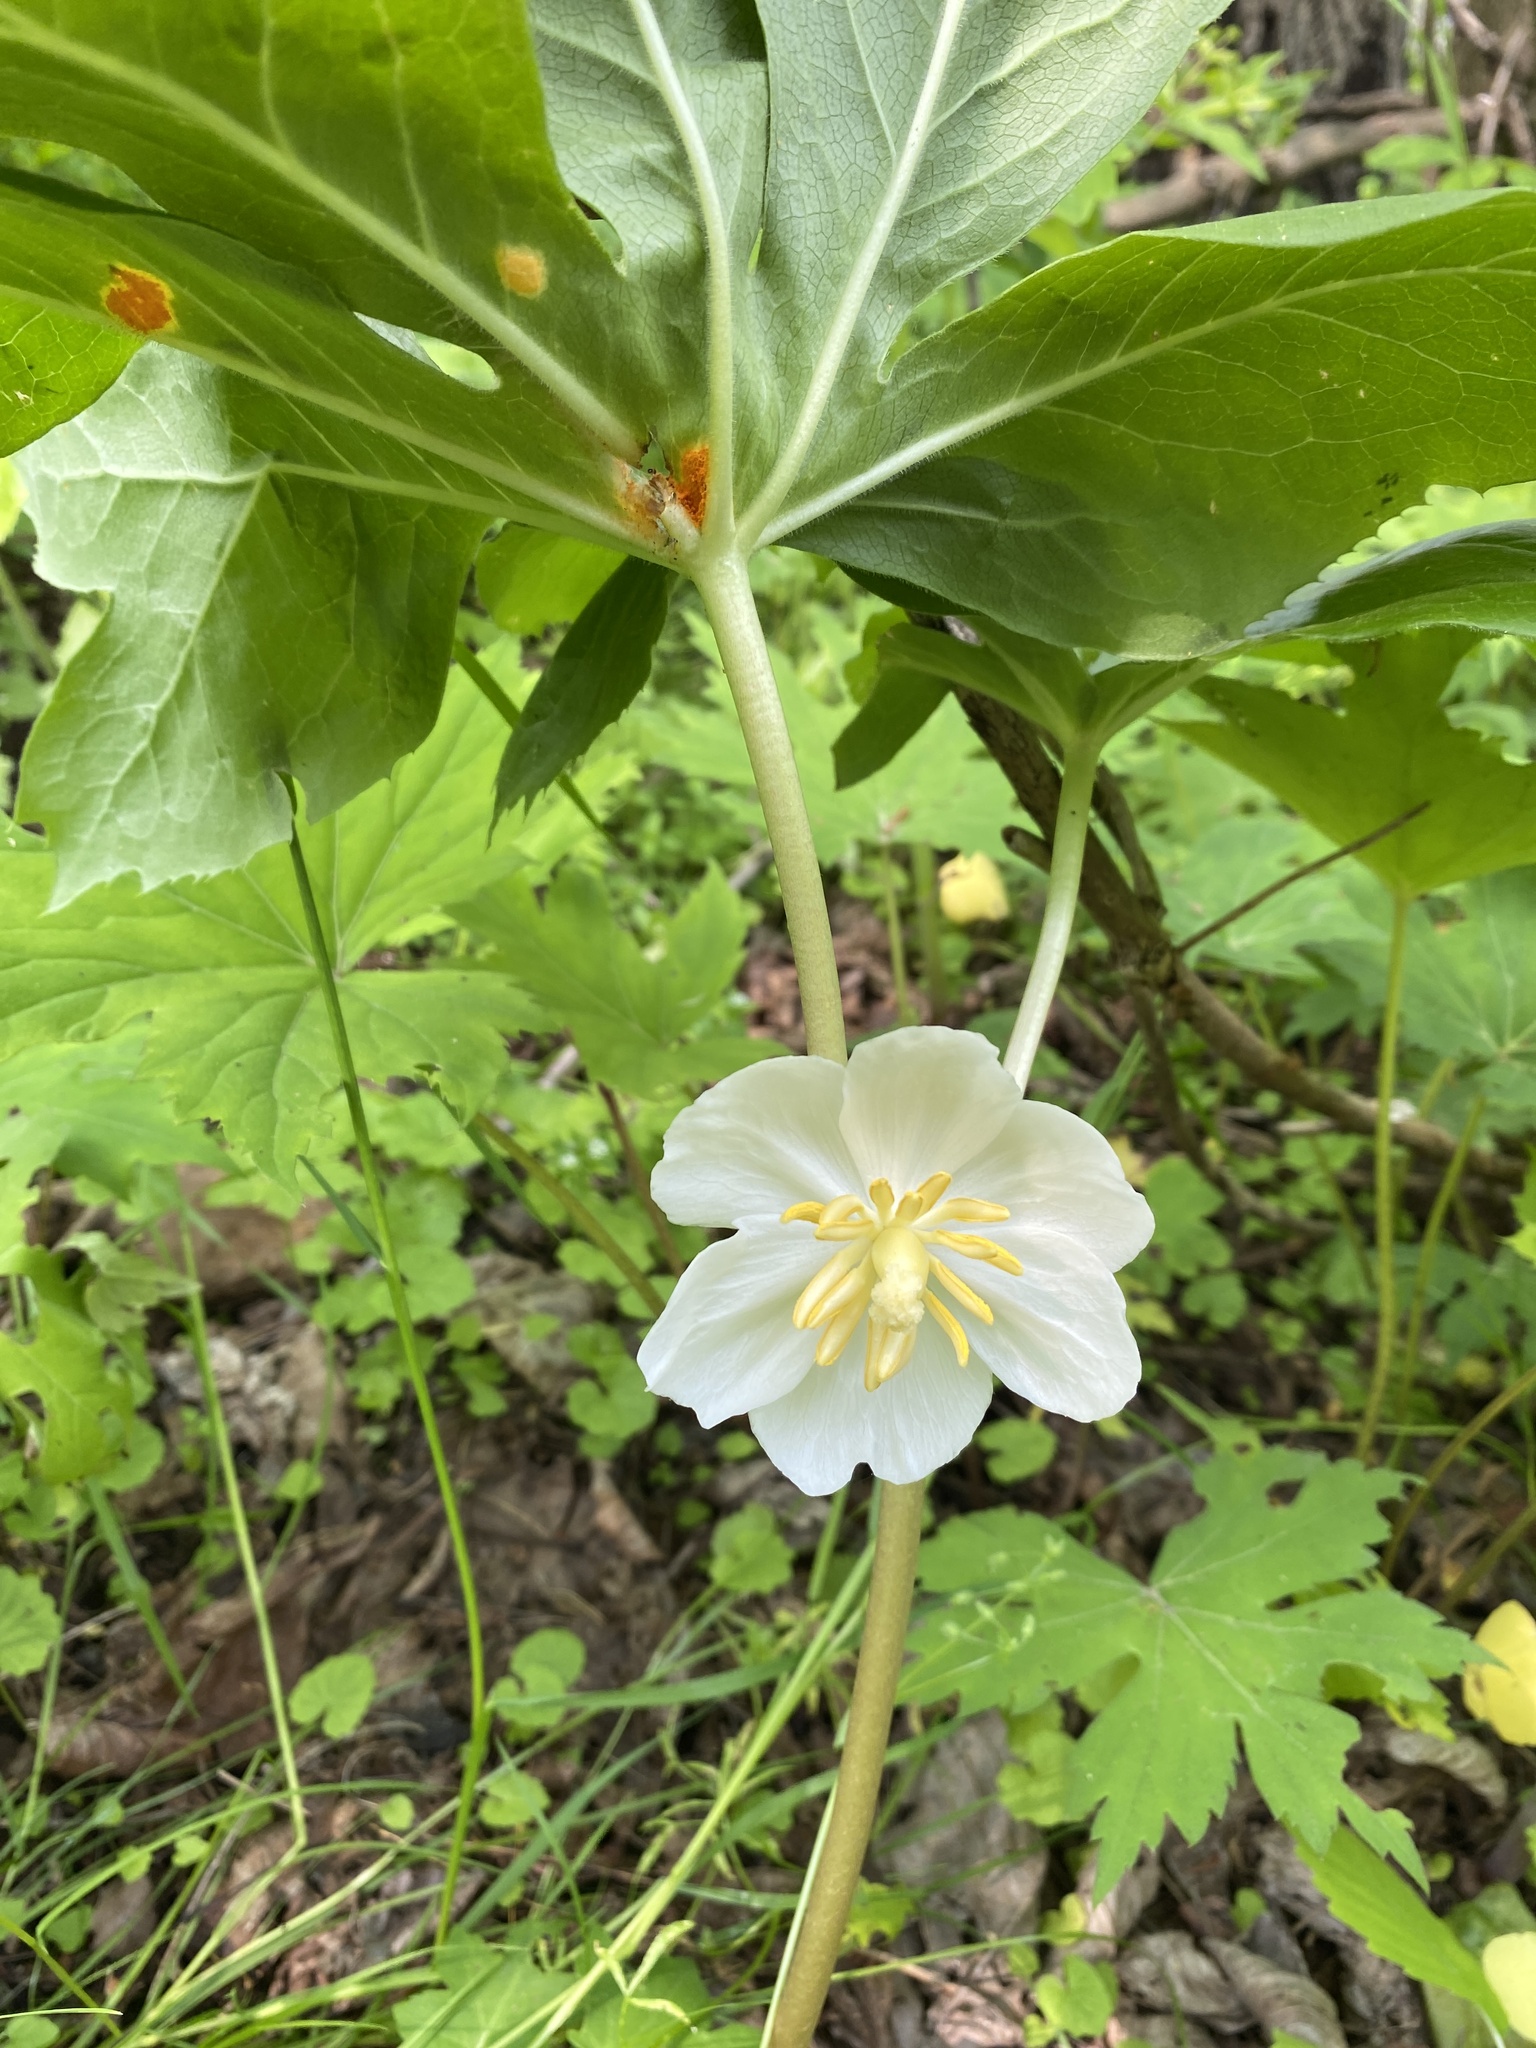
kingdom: Plantae
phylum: Tracheophyta
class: Magnoliopsida
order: Ranunculales
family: Berberidaceae
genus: Podophyllum
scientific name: Podophyllum peltatum
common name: Wild mandrake
